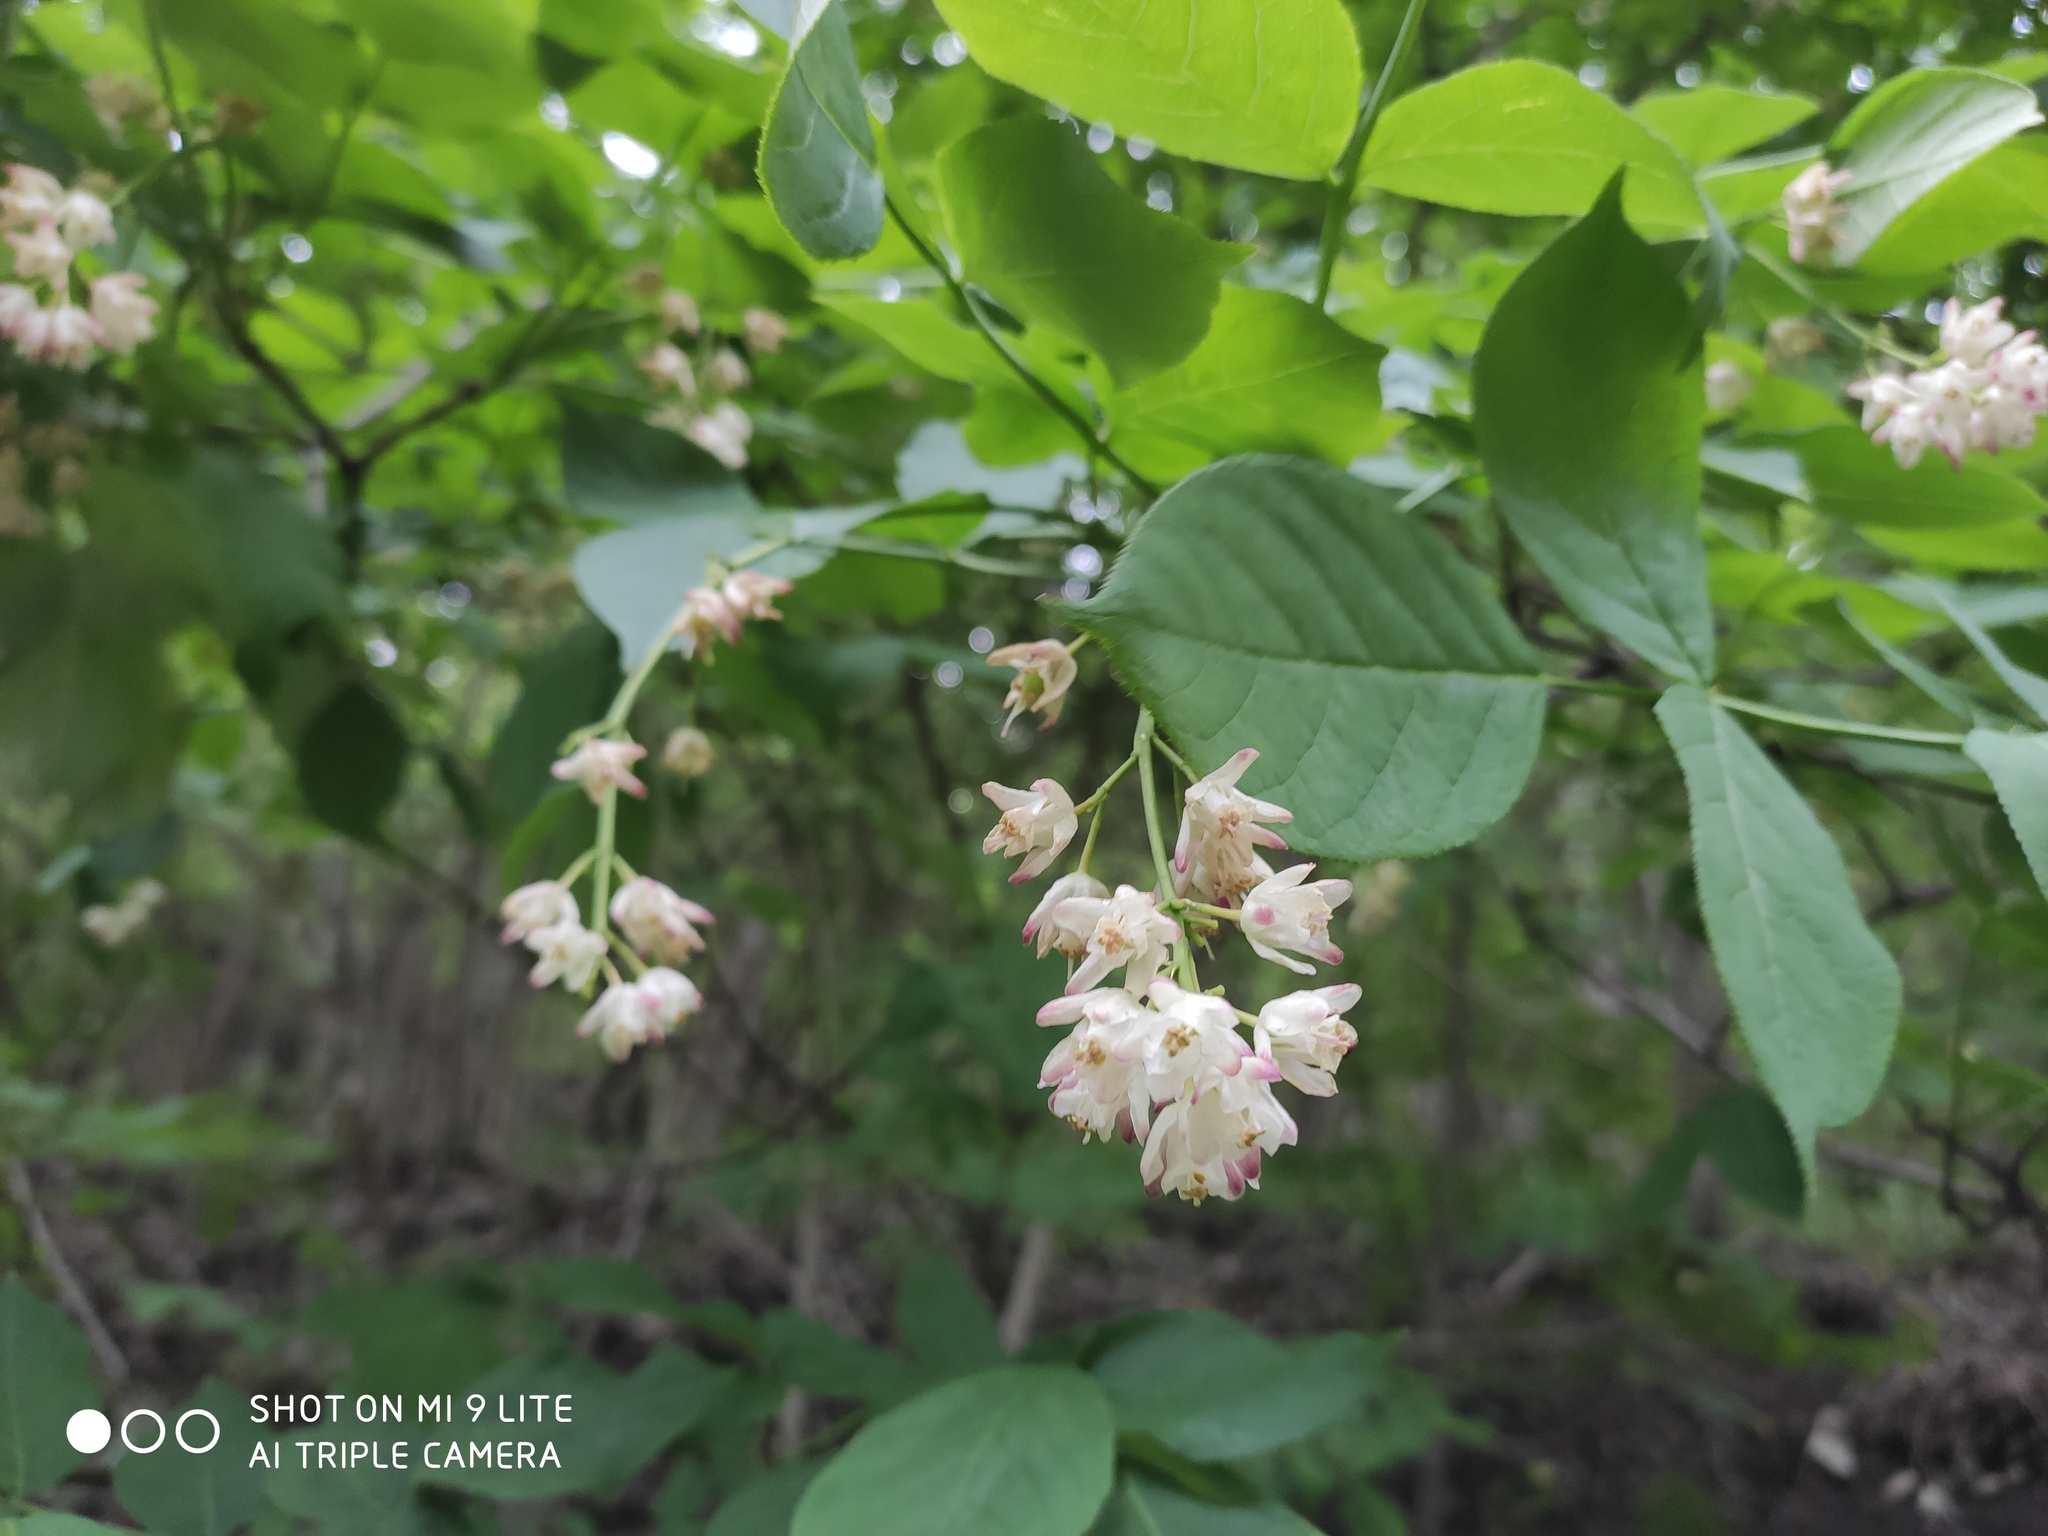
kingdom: Plantae
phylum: Tracheophyta
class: Magnoliopsida
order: Crossosomatales
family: Staphyleaceae
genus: Staphylea
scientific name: Staphylea pinnata
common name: Bladdernut
